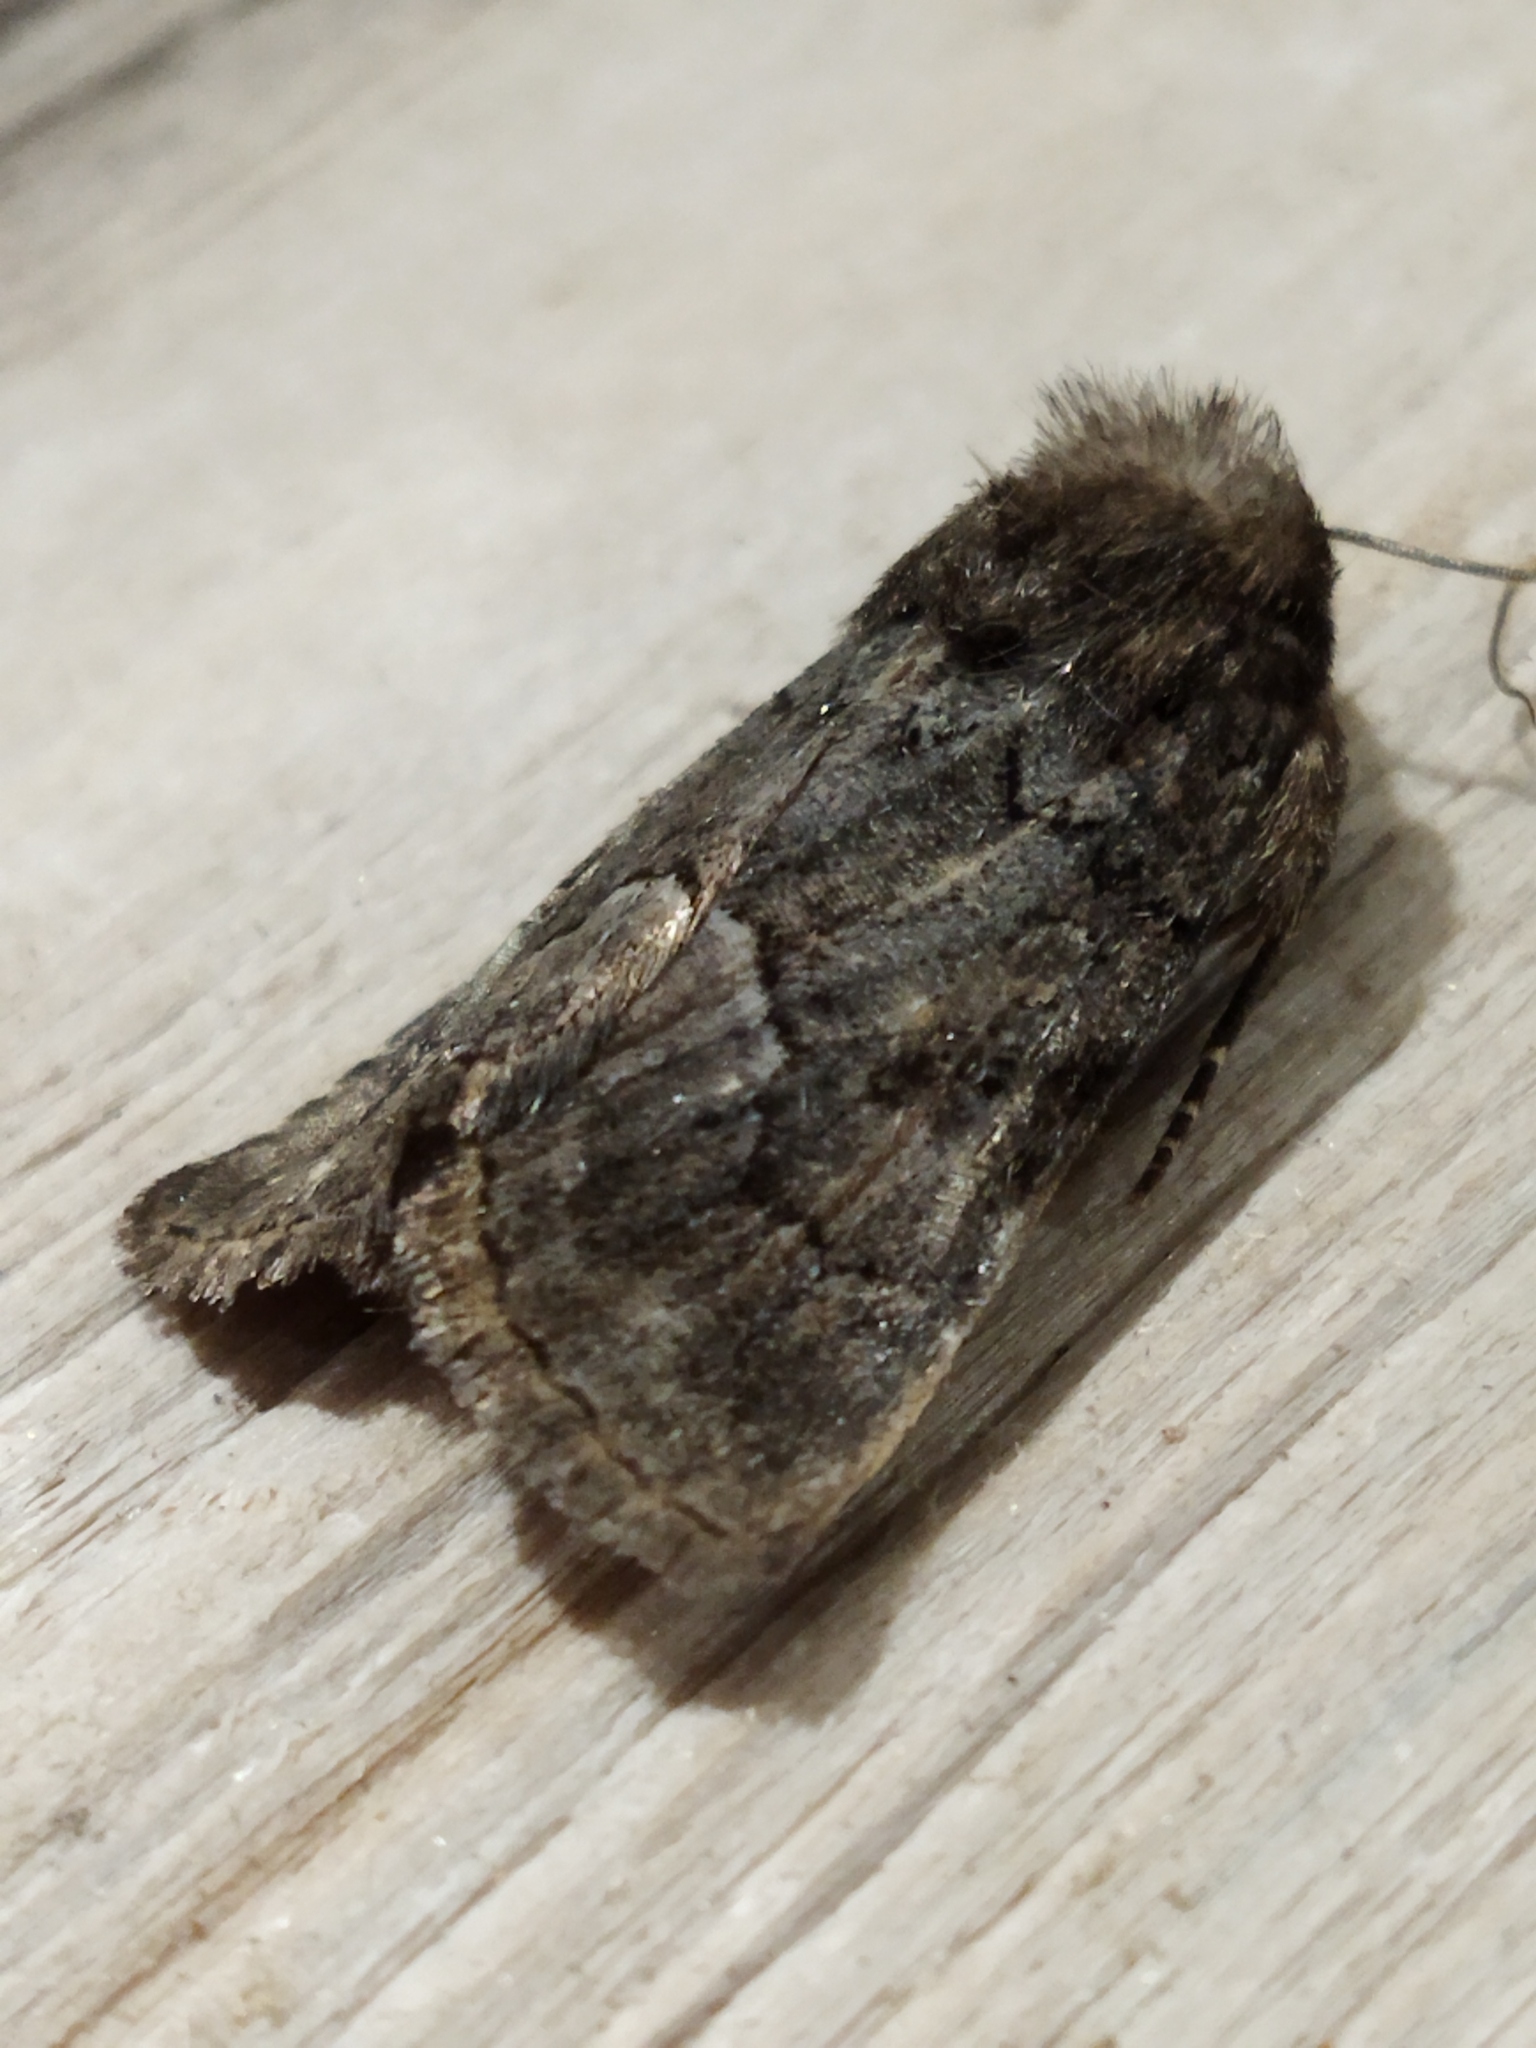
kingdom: Animalia
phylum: Arthropoda
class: Insecta
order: Lepidoptera
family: Noctuidae
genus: Thalpophila
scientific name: Thalpophila matura
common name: Straw underwing
